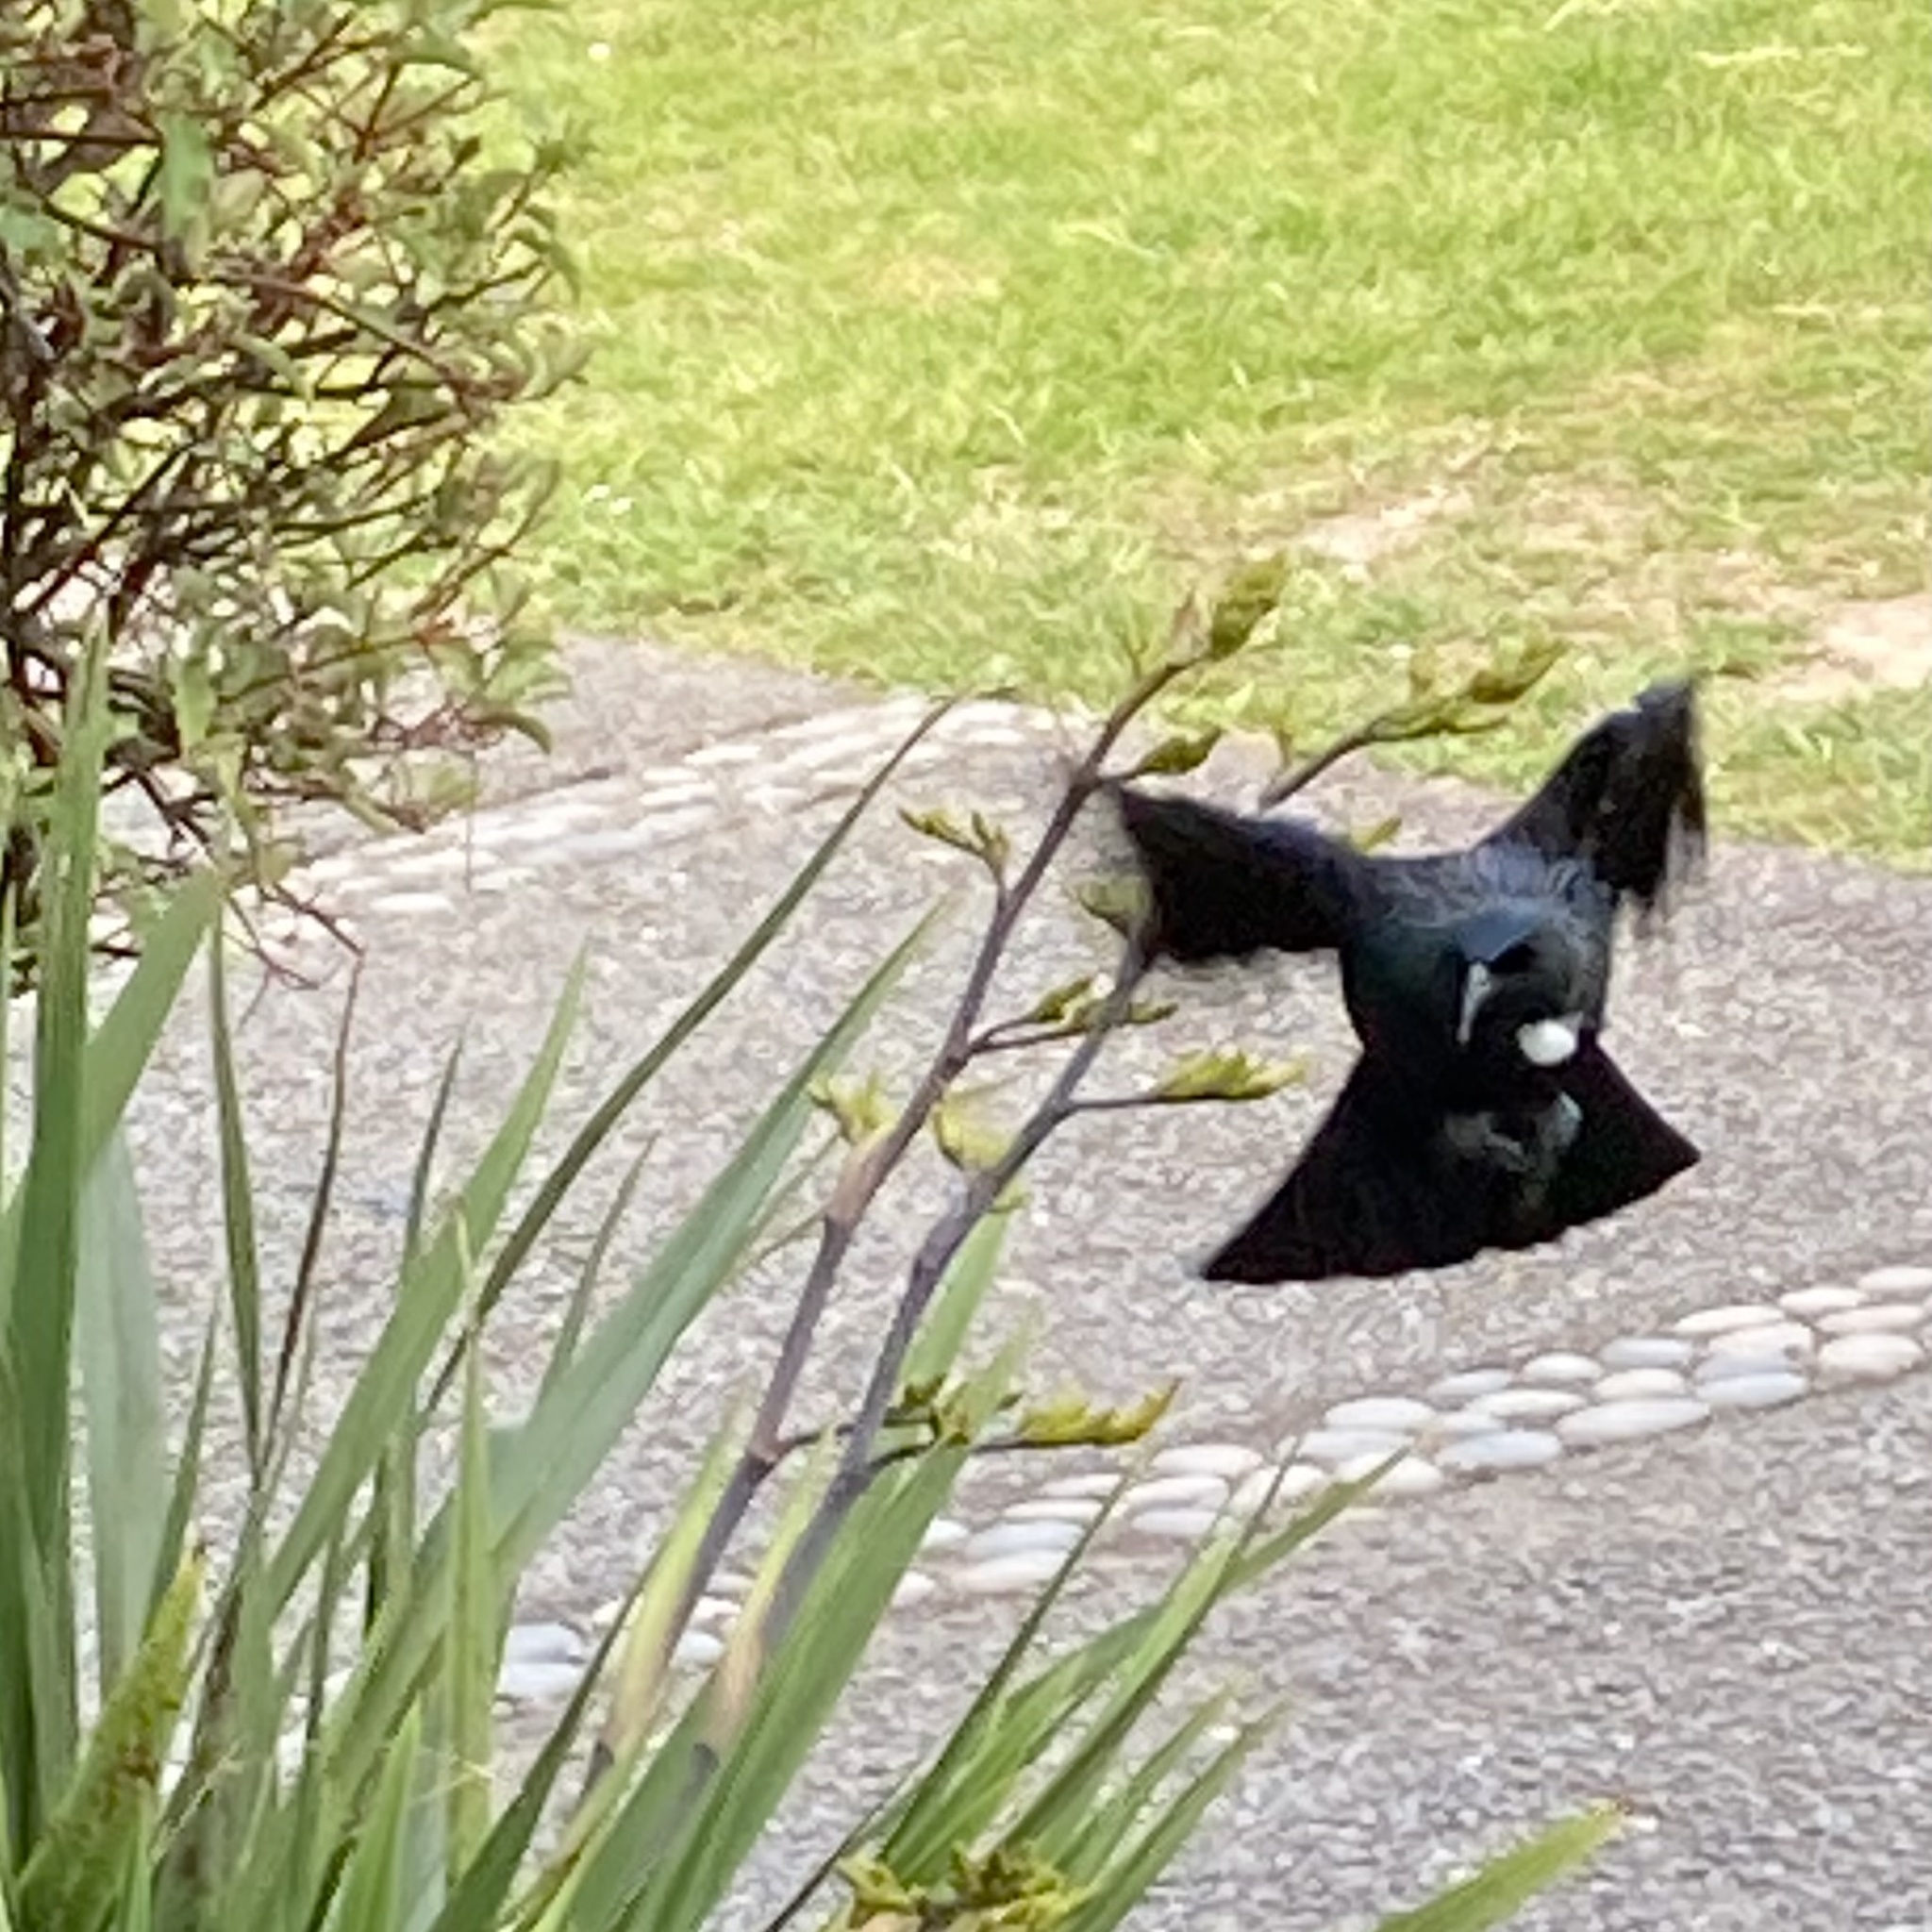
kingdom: Animalia
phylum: Chordata
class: Aves
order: Passeriformes
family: Meliphagidae
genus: Prosthemadera
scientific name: Prosthemadera novaeseelandiae
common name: Tui
